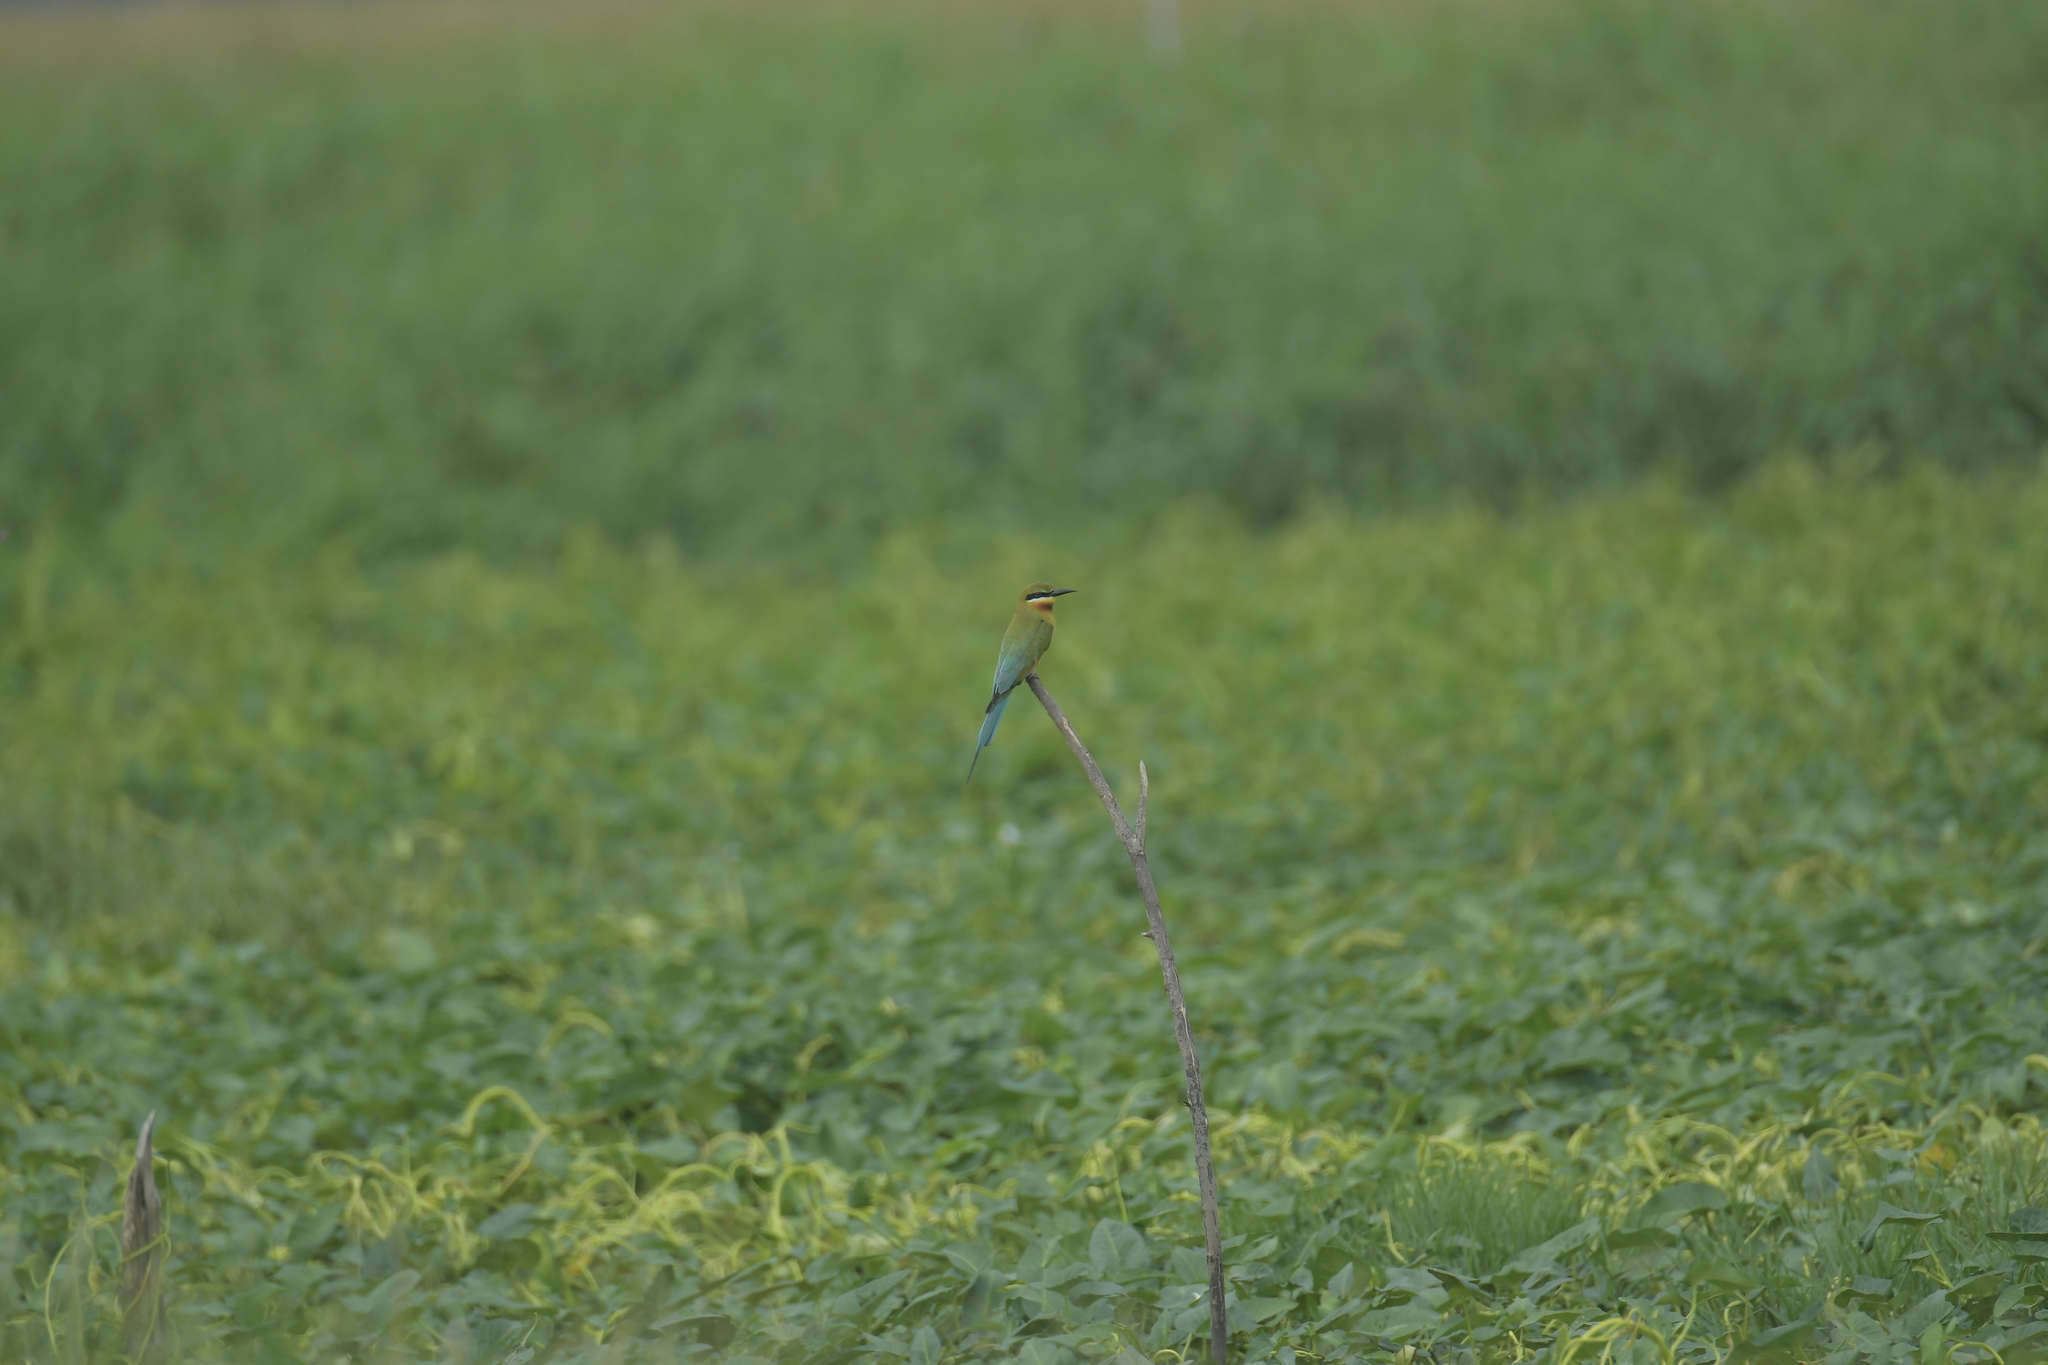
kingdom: Animalia
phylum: Chordata
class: Aves
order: Coraciiformes
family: Meropidae
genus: Merops
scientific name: Merops philippinus
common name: Blue-tailed bee-eater
